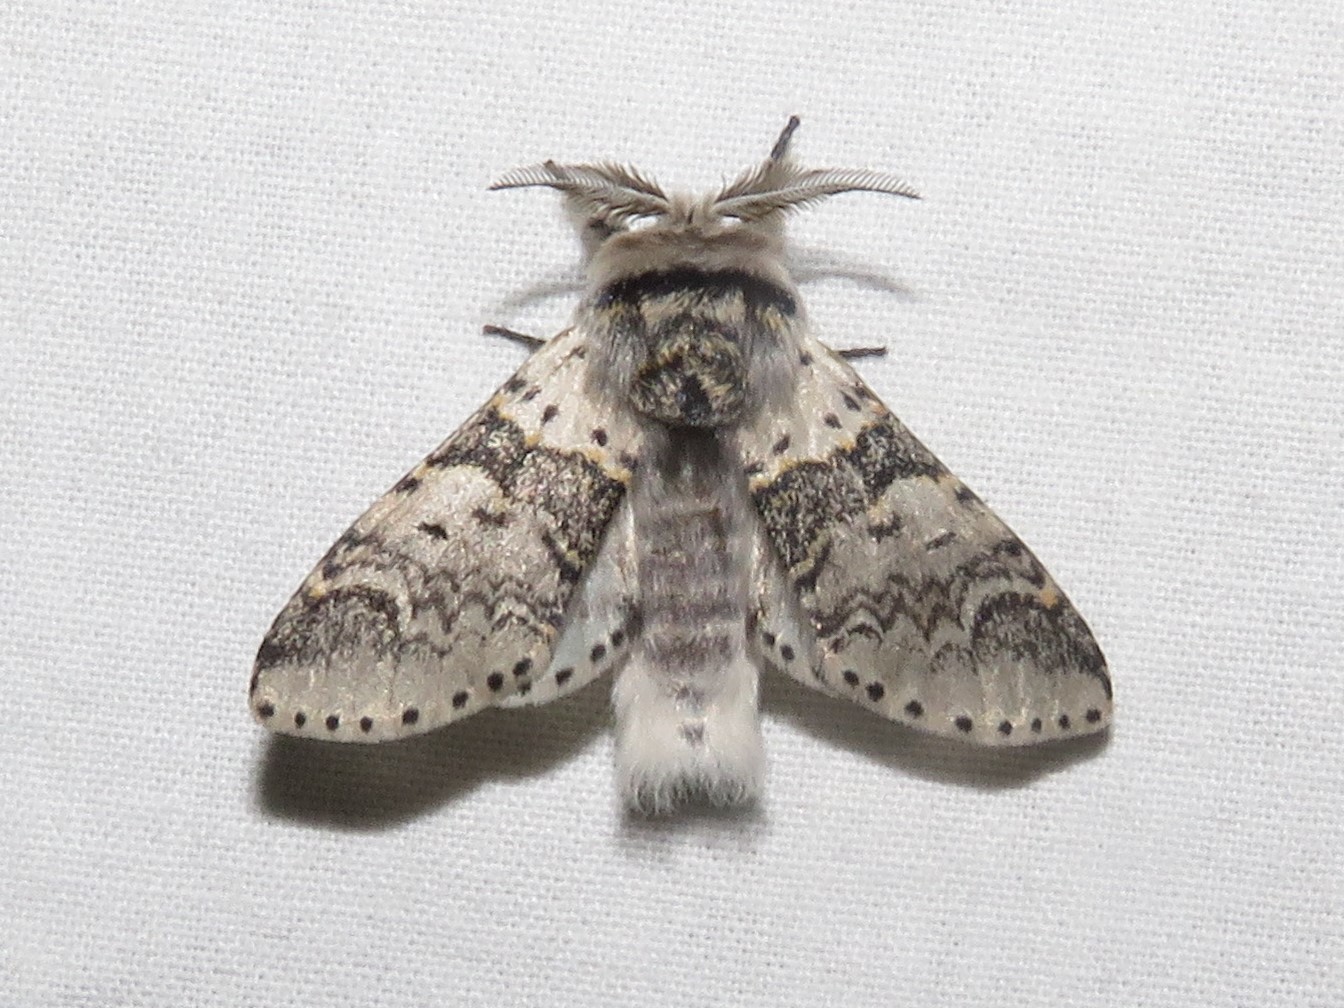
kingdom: Animalia
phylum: Arthropoda
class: Insecta
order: Lepidoptera
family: Notodontidae
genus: Furcula
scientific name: Furcula occidentalis
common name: Western furcula moth
